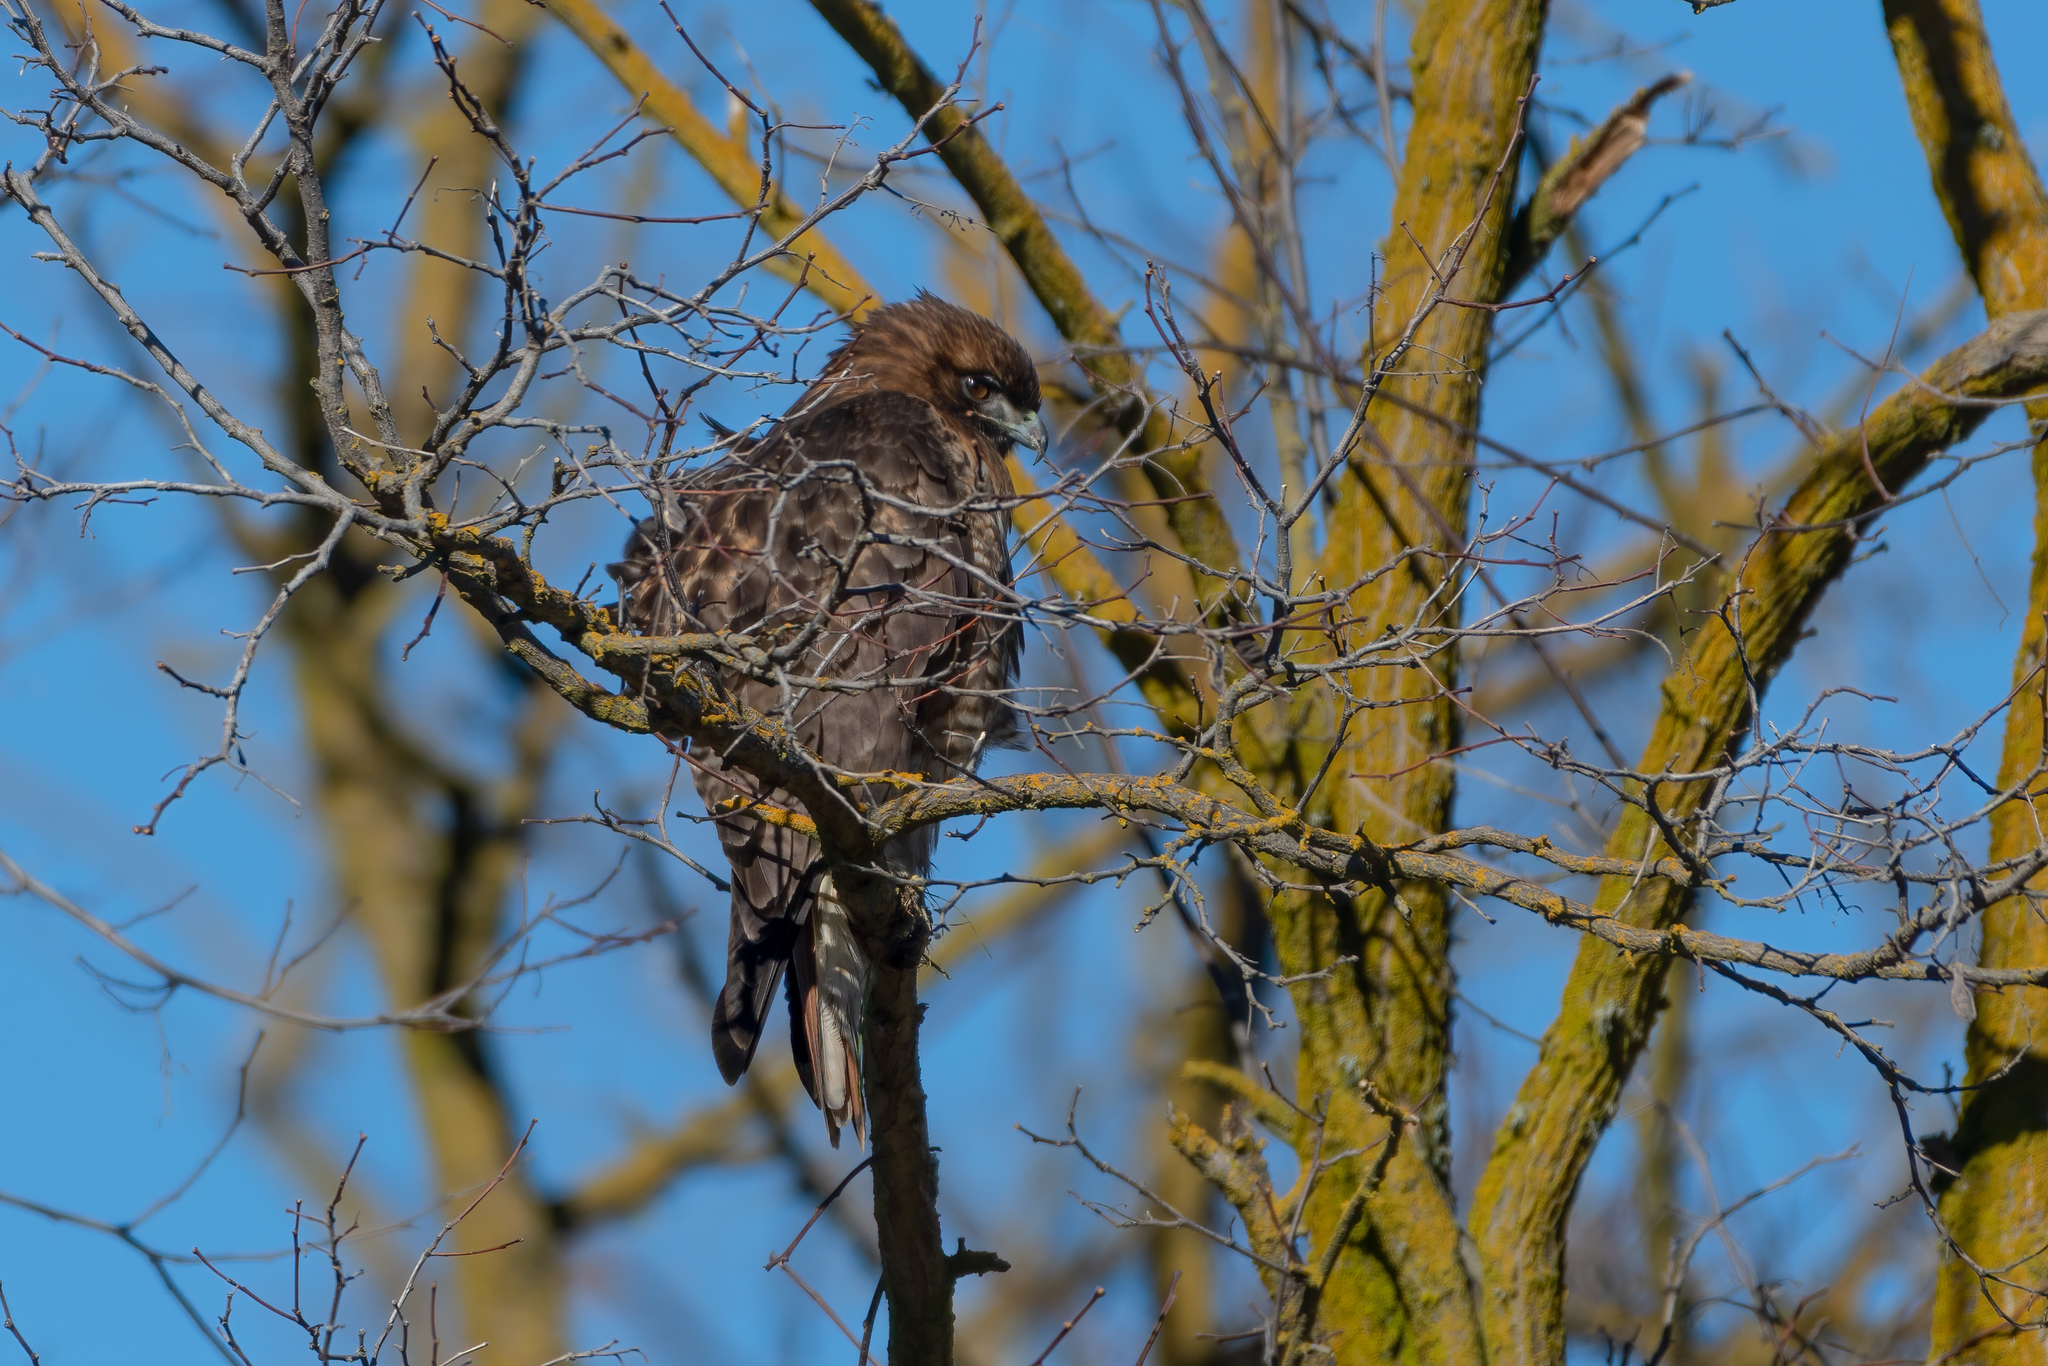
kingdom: Animalia
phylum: Chordata
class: Aves
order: Accipitriformes
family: Accipitridae
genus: Buteo
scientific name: Buteo jamaicensis
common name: Red-tailed hawk
